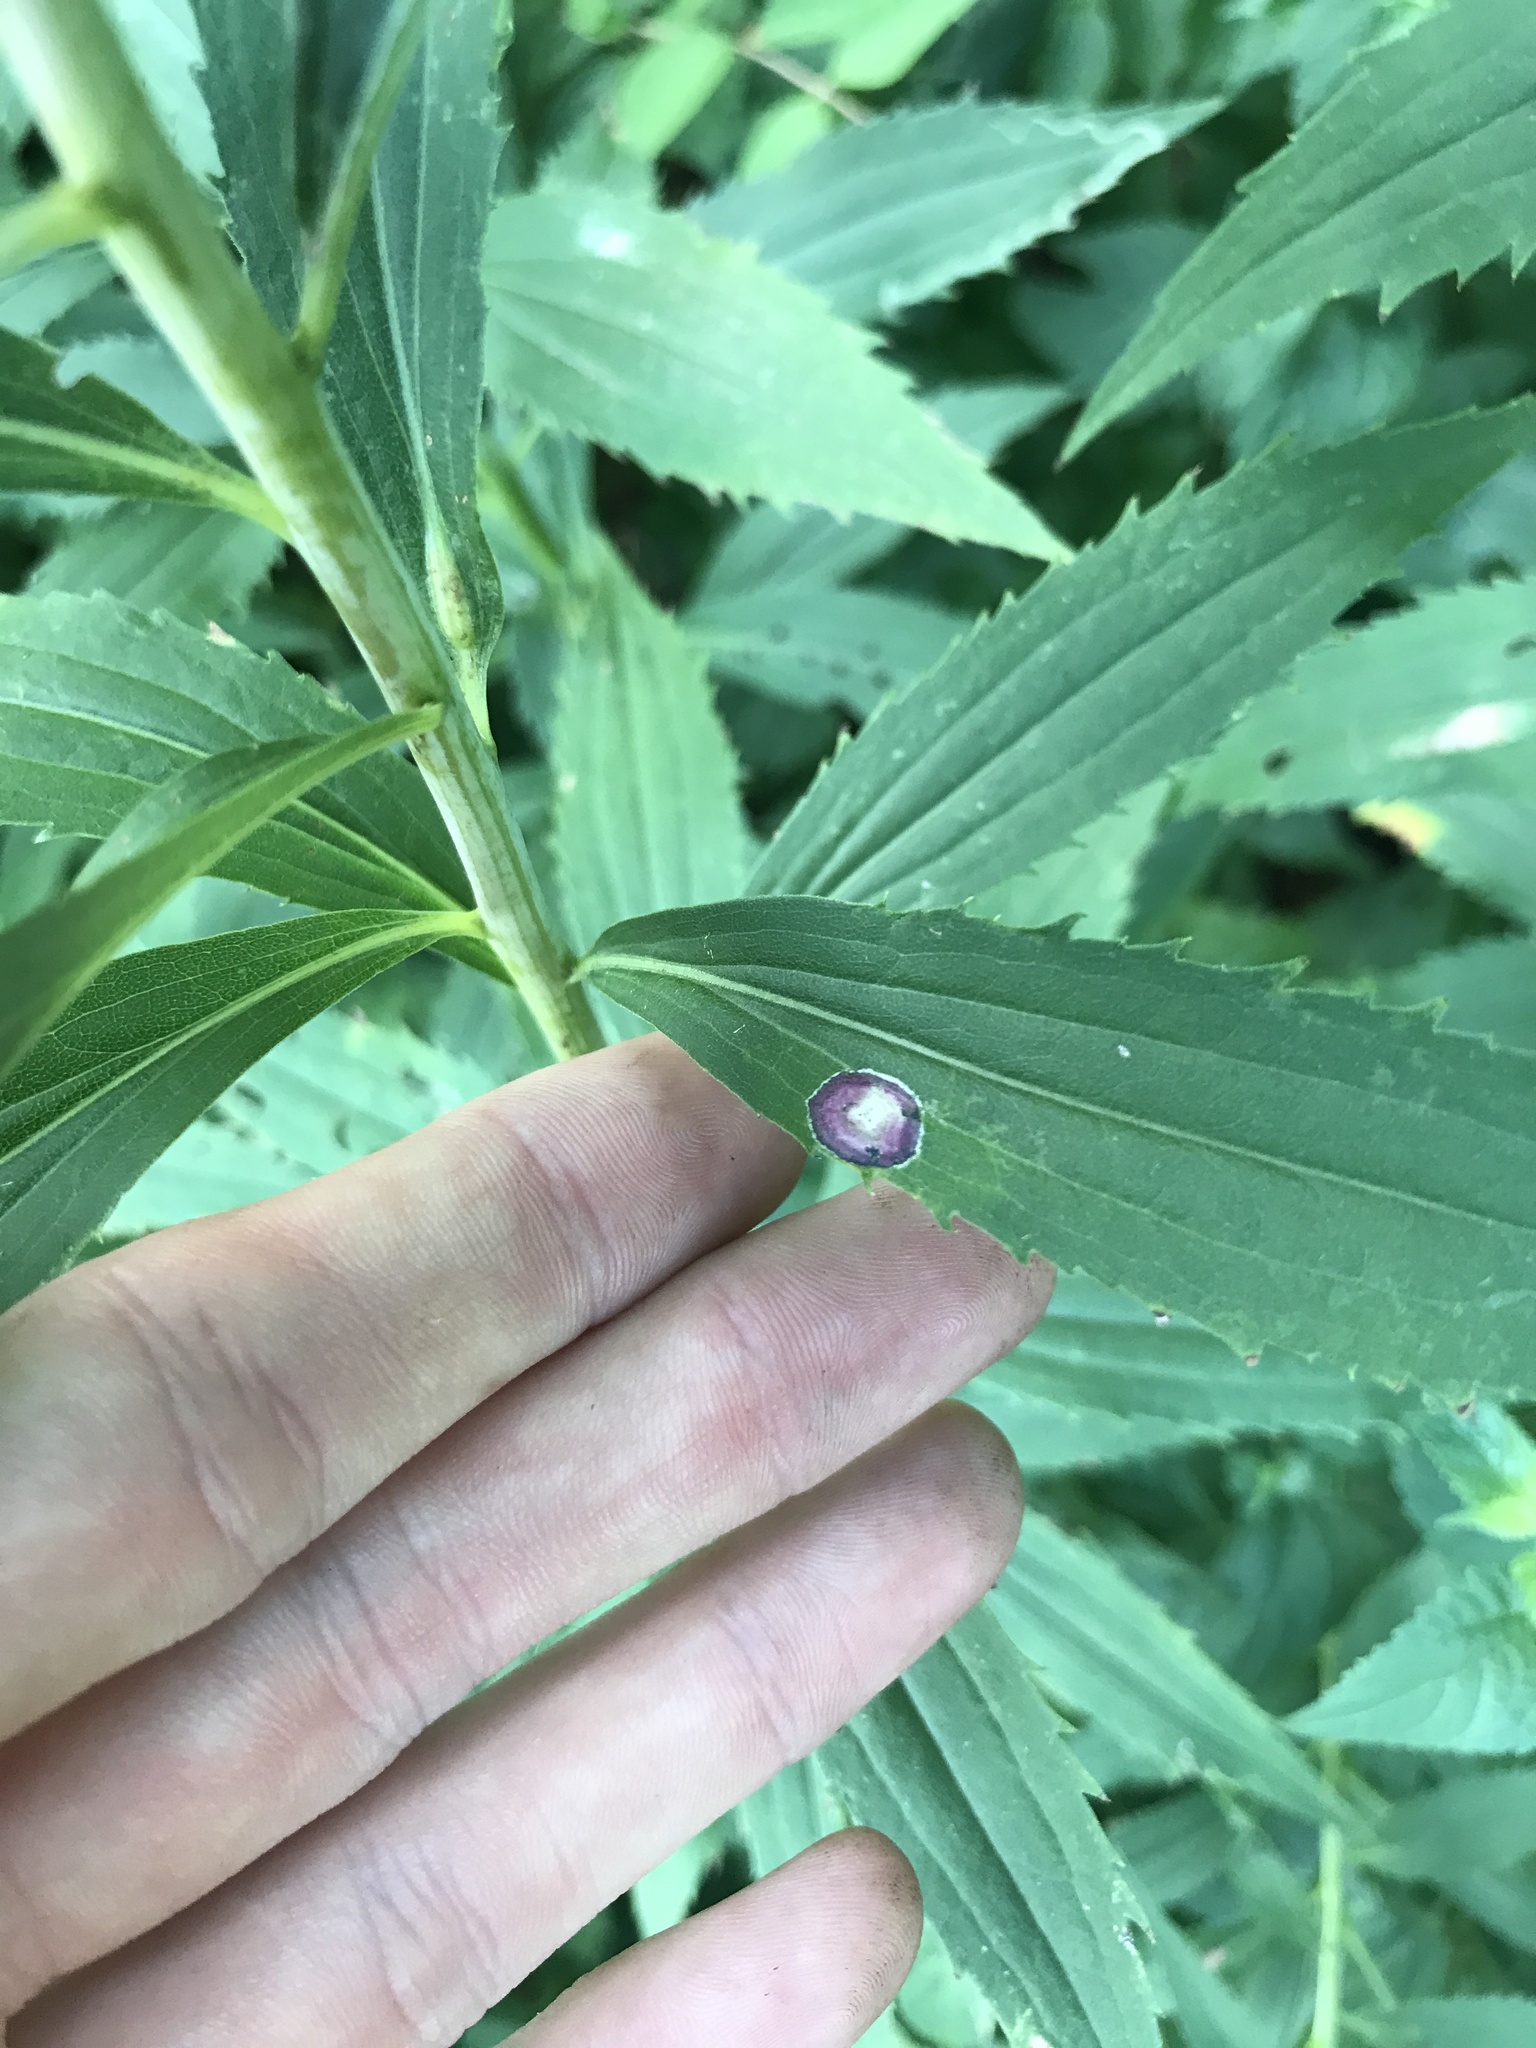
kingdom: Animalia
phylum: Arthropoda
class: Insecta
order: Diptera
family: Cecidomyiidae
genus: Asteromyia
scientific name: Asteromyia carbonifera
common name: Carbonifera goldenrod gall midge
